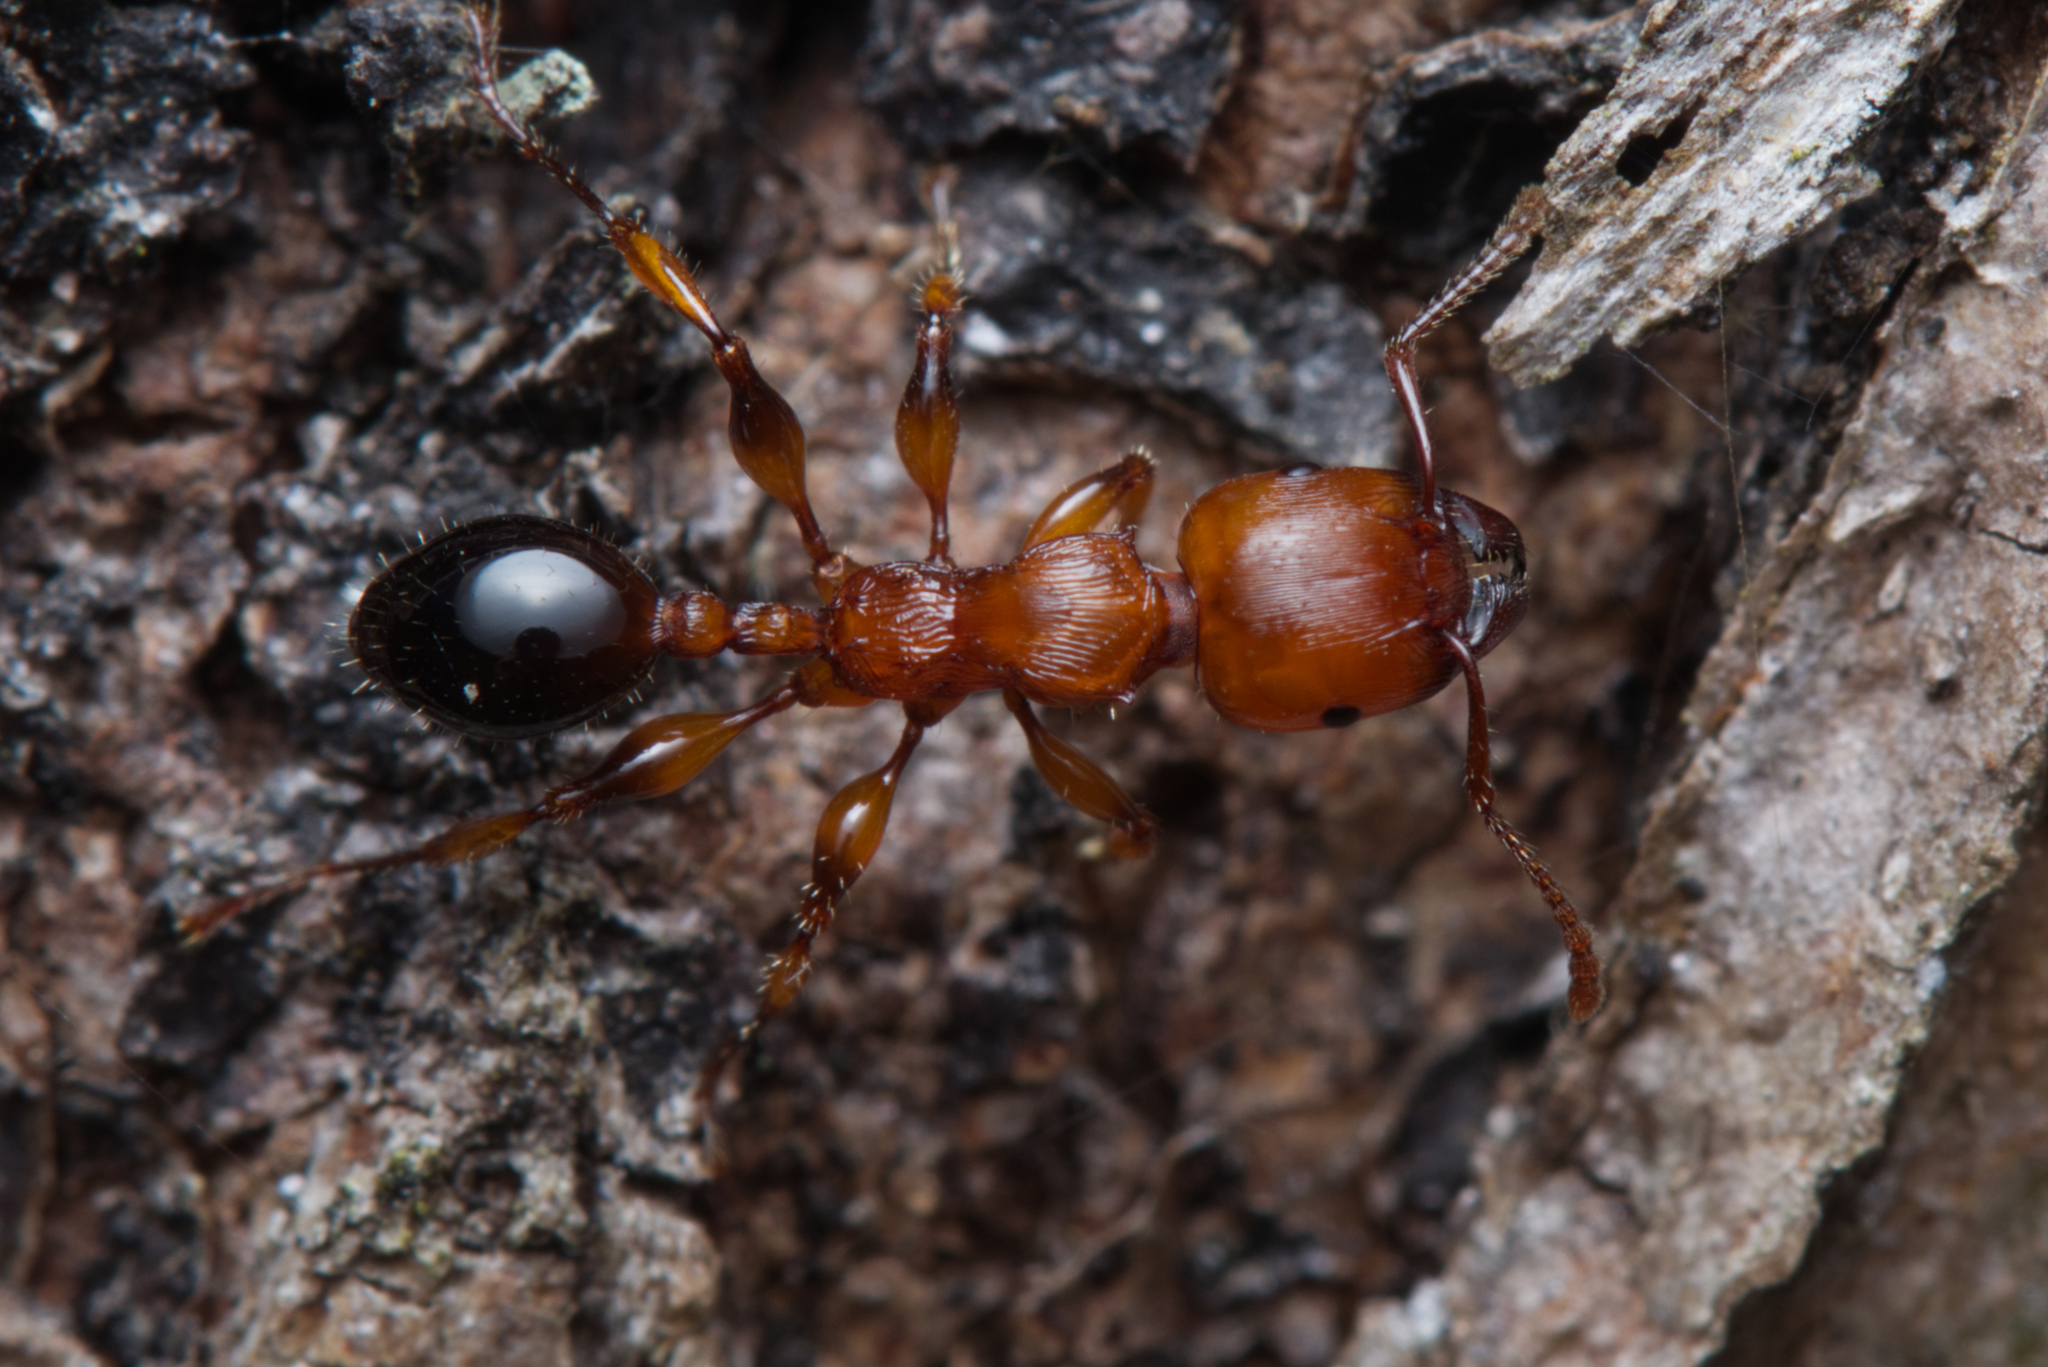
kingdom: Animalia
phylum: Arthropoda
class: Insecta
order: Hymenoptera
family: Formicidae
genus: Podomyrma
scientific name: Podomyrma gratiosa
